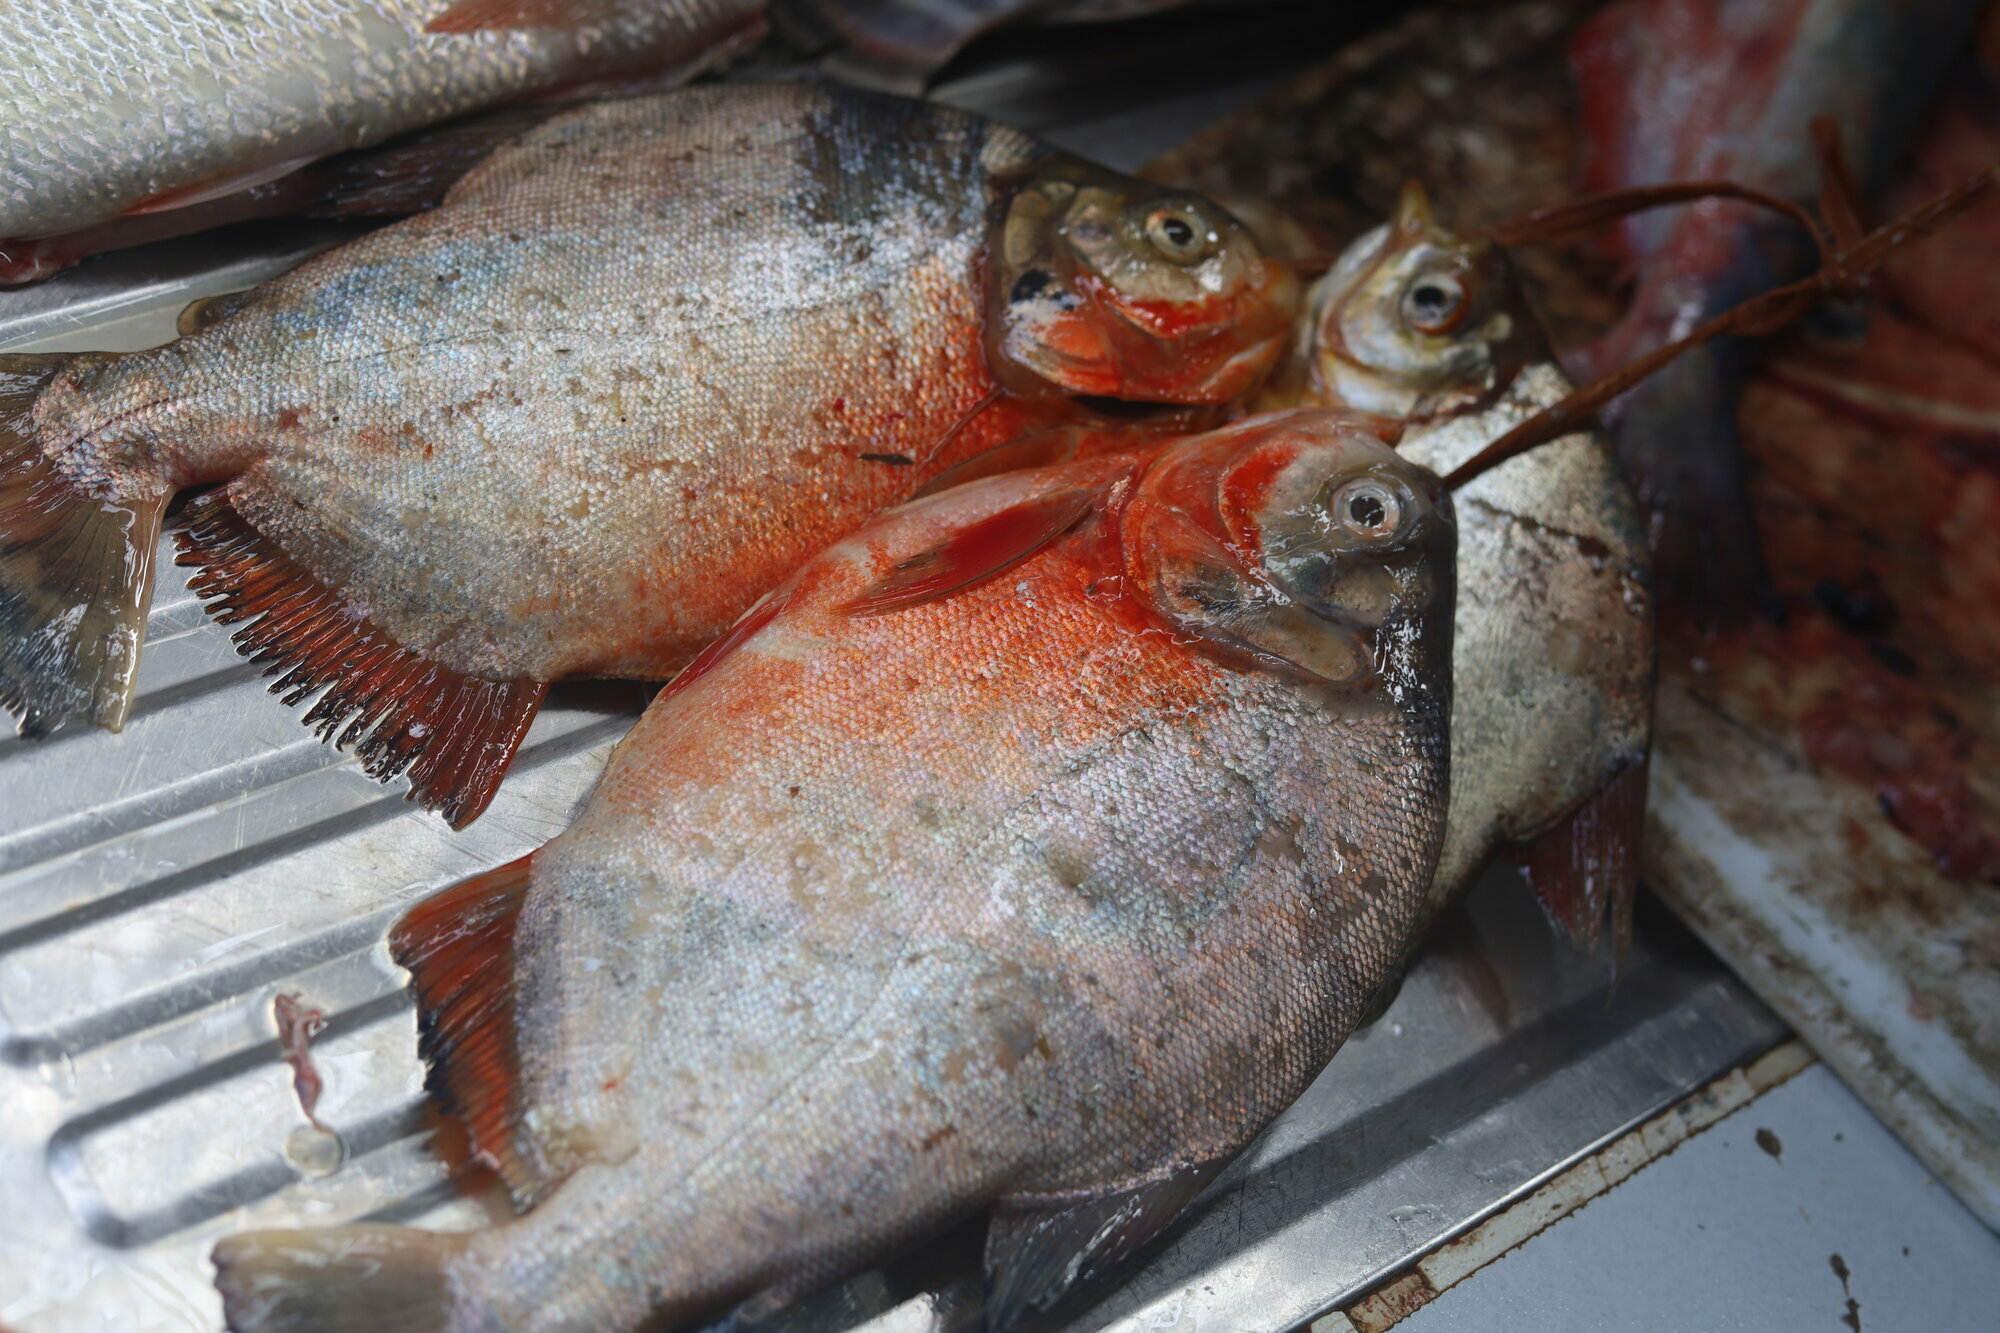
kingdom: Animalia
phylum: Chordata
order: Characiformes
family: Serrasalmidae
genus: Piaractus
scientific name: Piaractus brachypomus
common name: Cachama
